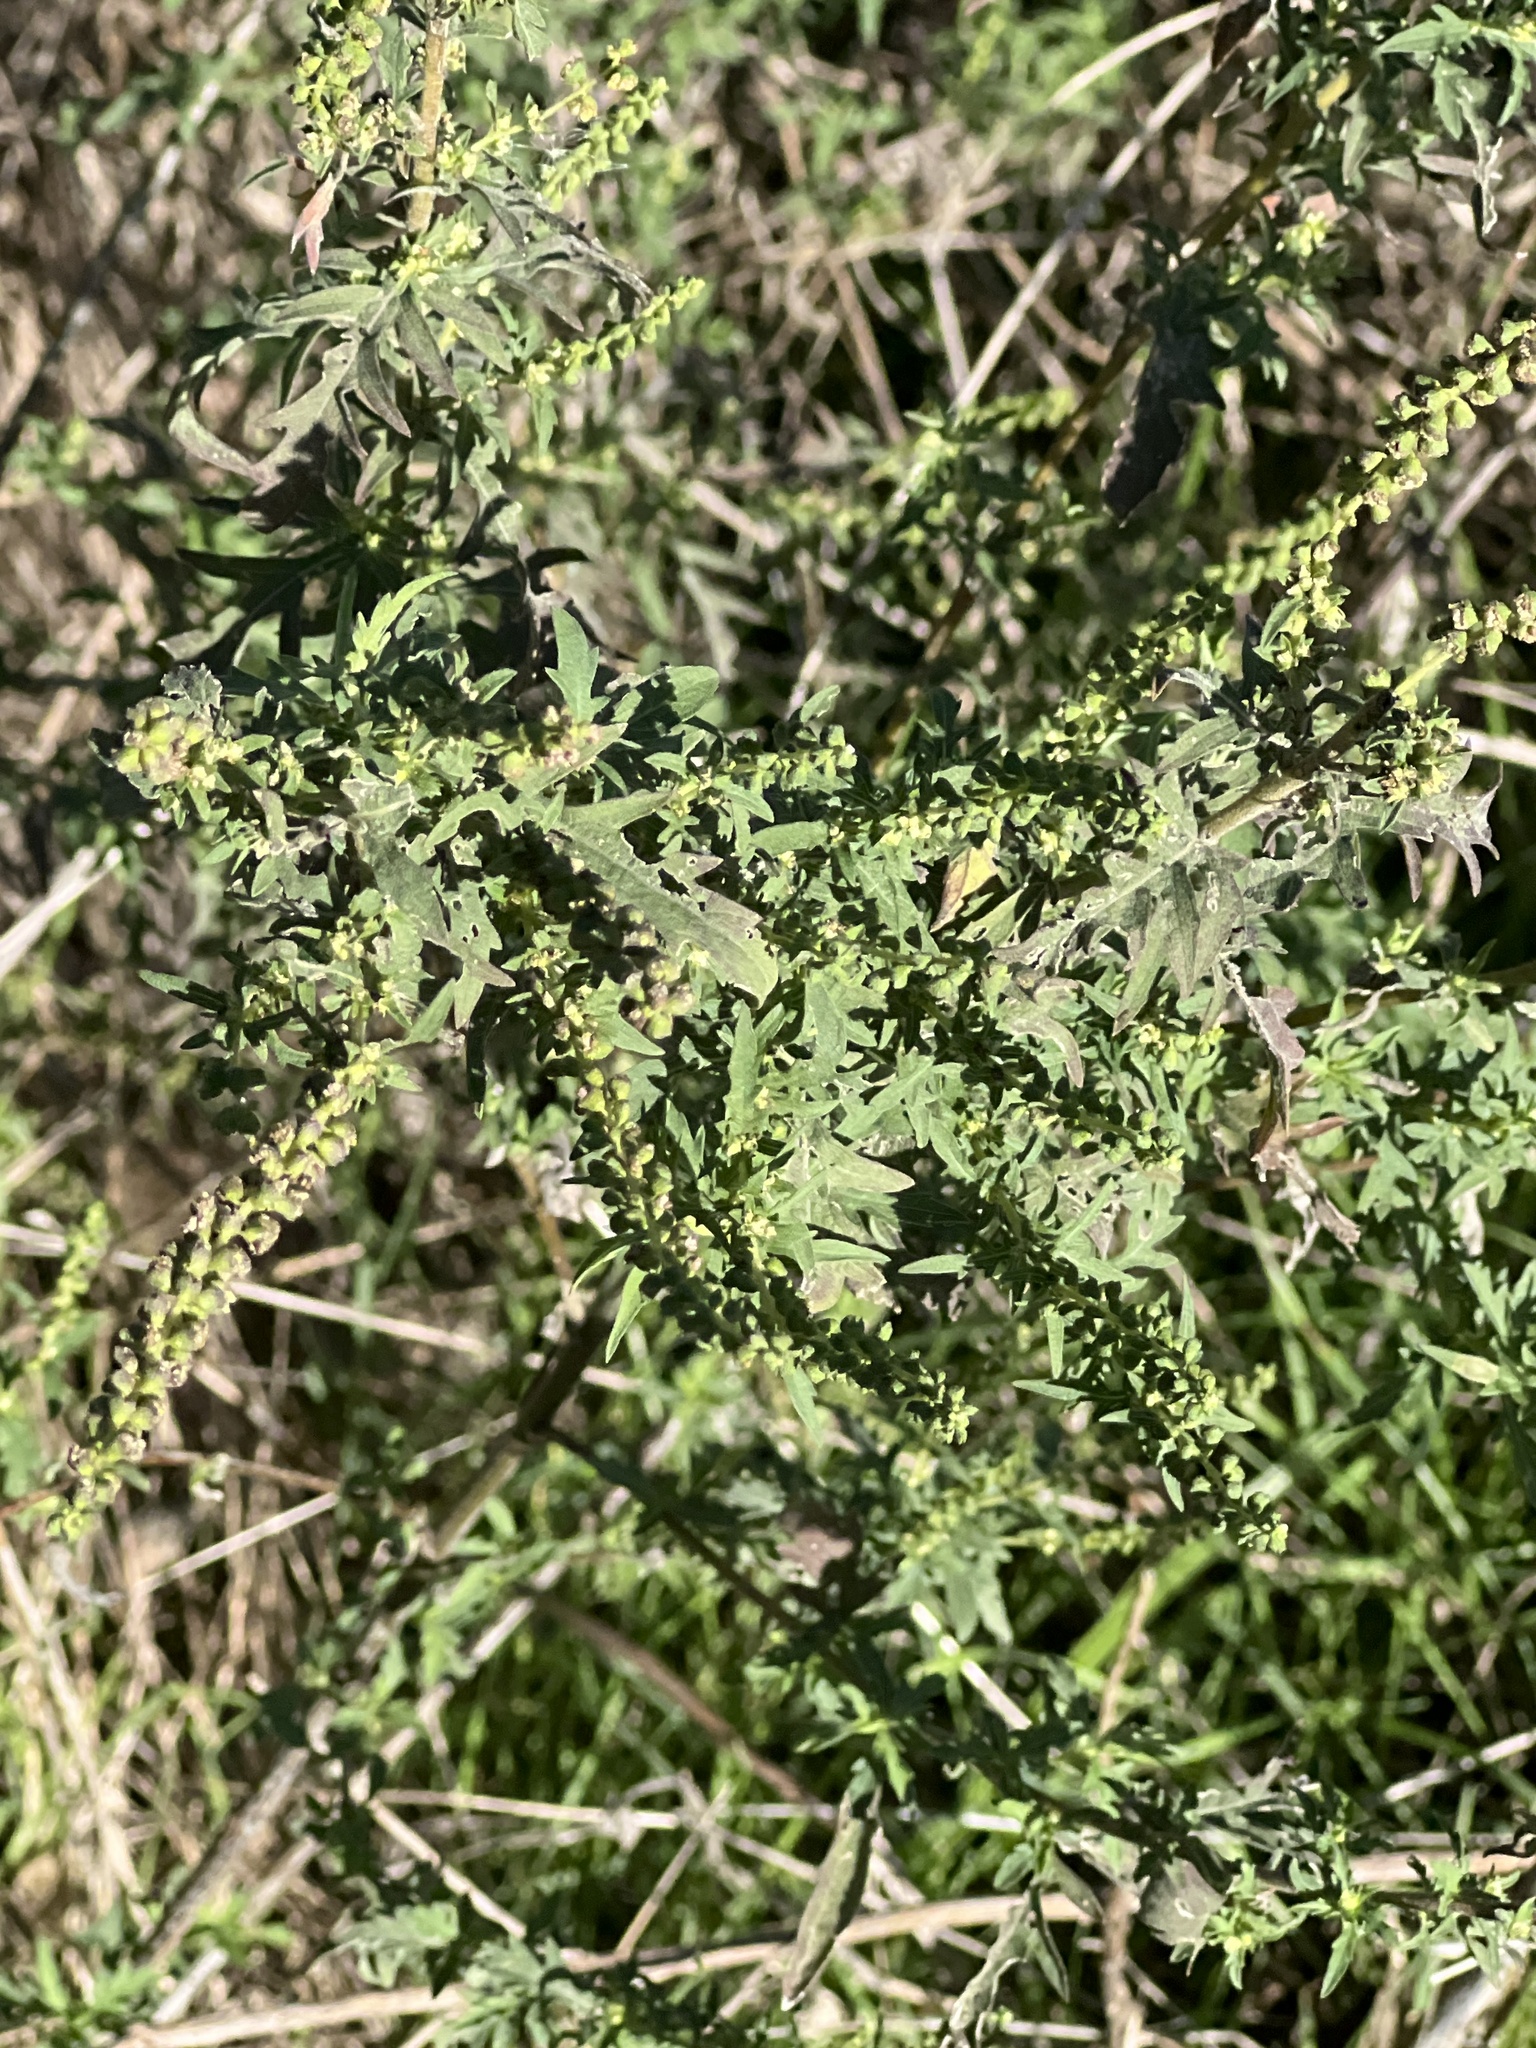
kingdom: Plantae
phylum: Tracheophyta
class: Magnoliopsida
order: Asterales
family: Asteraceae
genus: Ambrosia
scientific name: Ambrosia psilostachya
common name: Perennial ragweed
